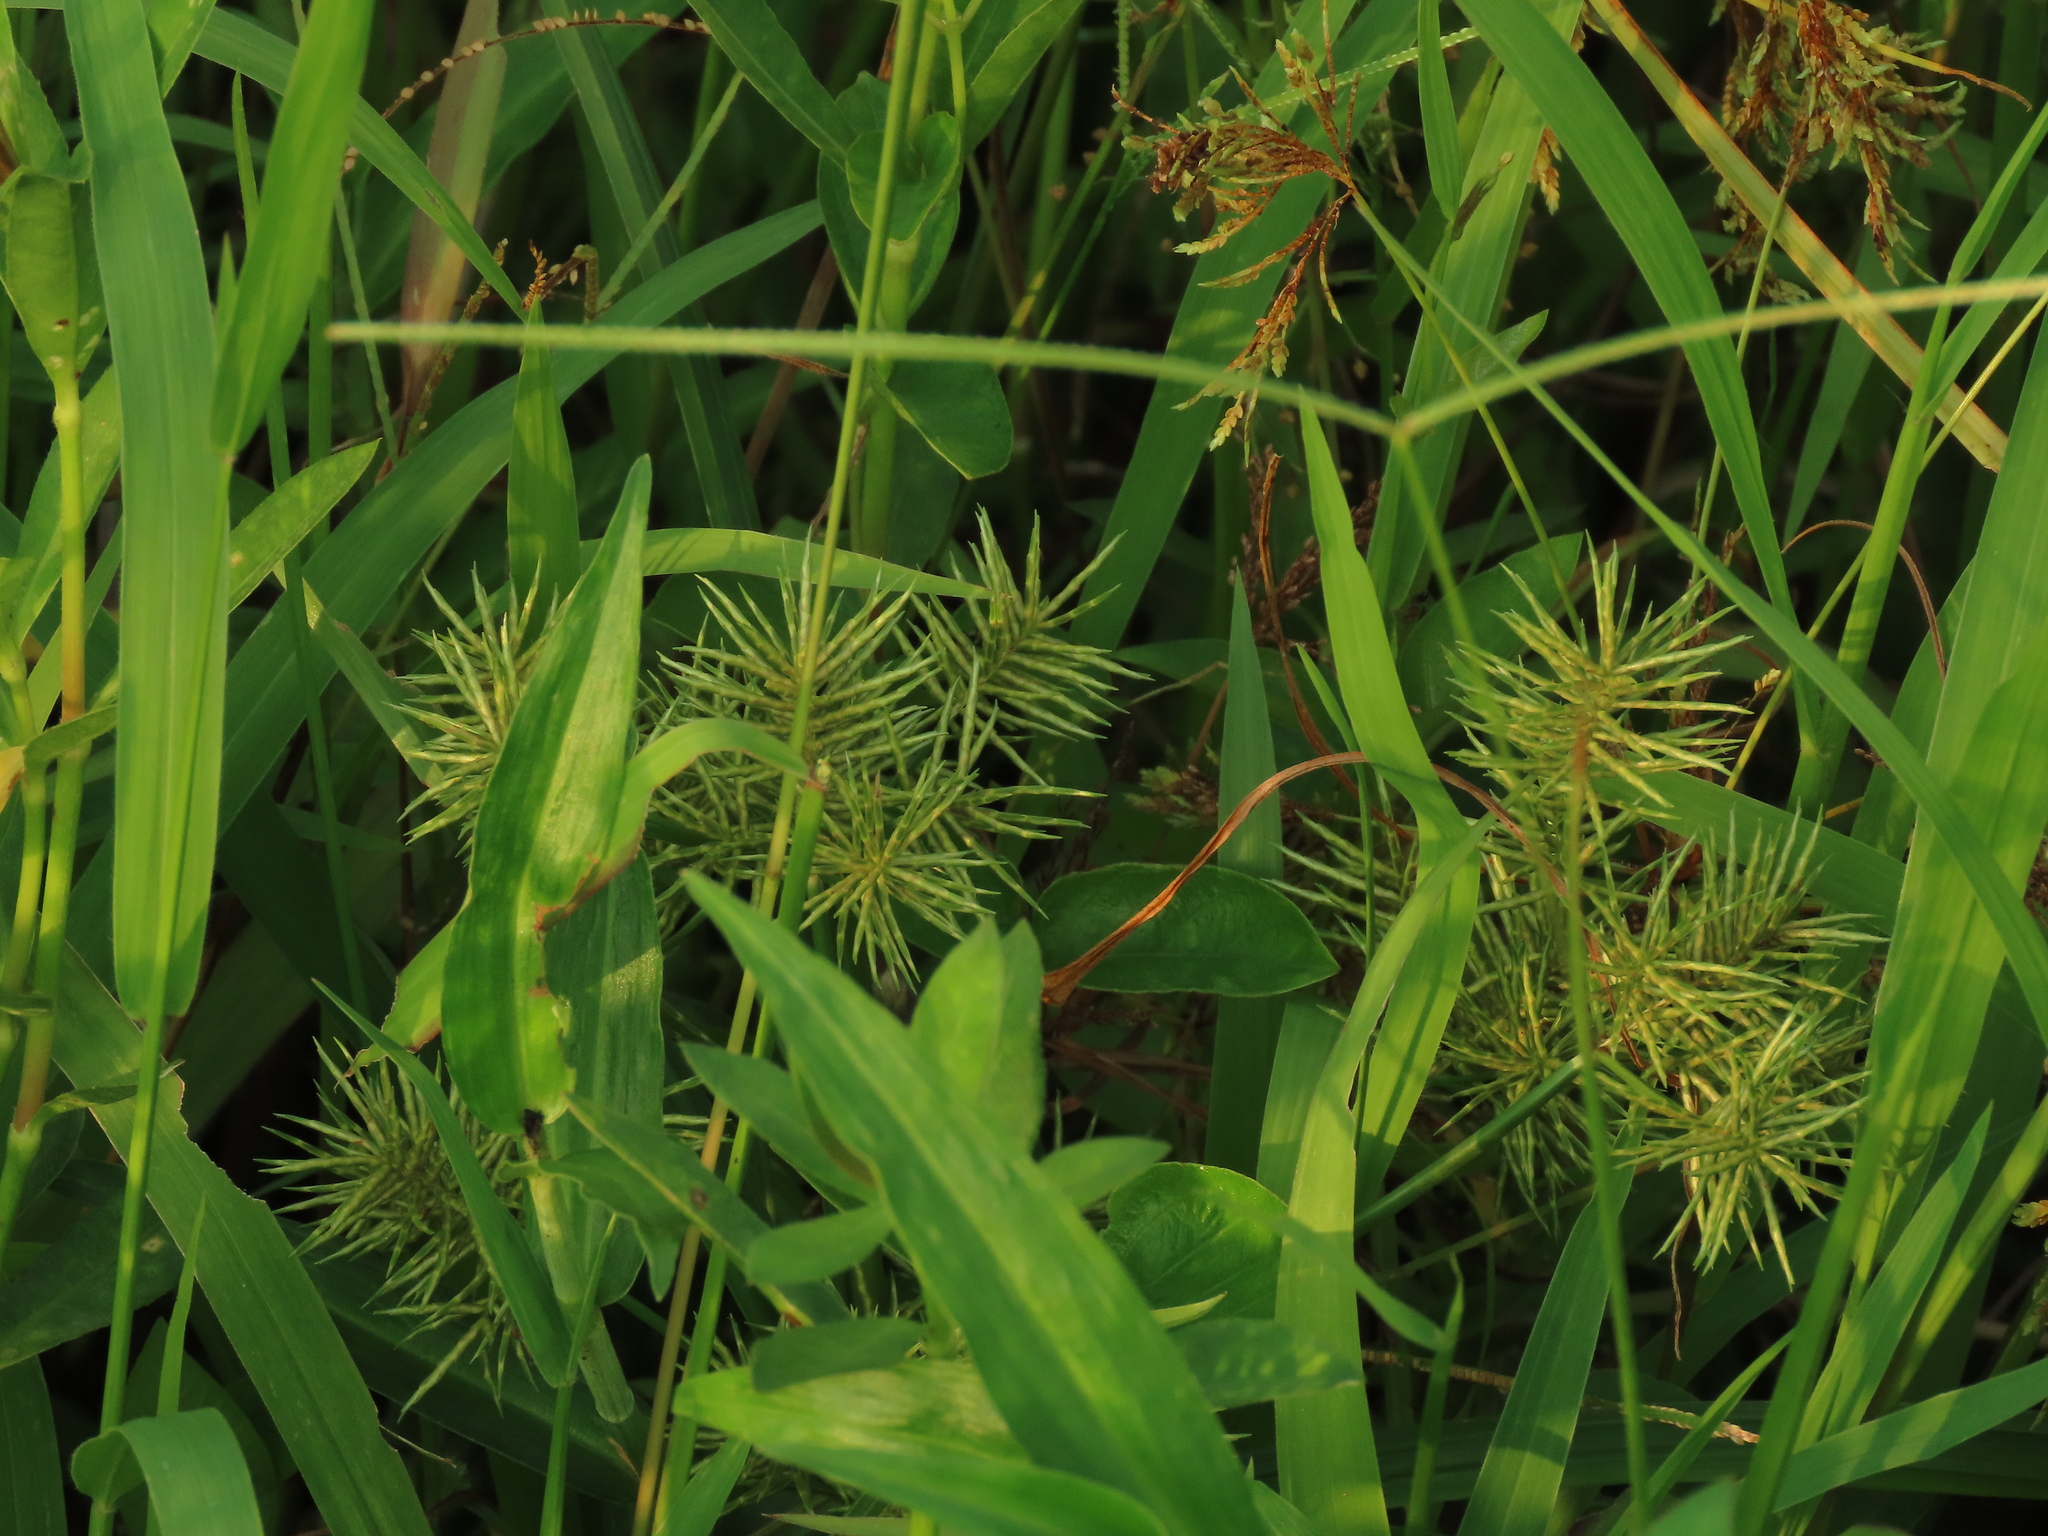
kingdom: Plantae
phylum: Tracheophyta
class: Liliopsida
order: Poales
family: Cyperaceae
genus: Cyperus
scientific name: Cyperus odoratus
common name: Fragrant flatsedge
